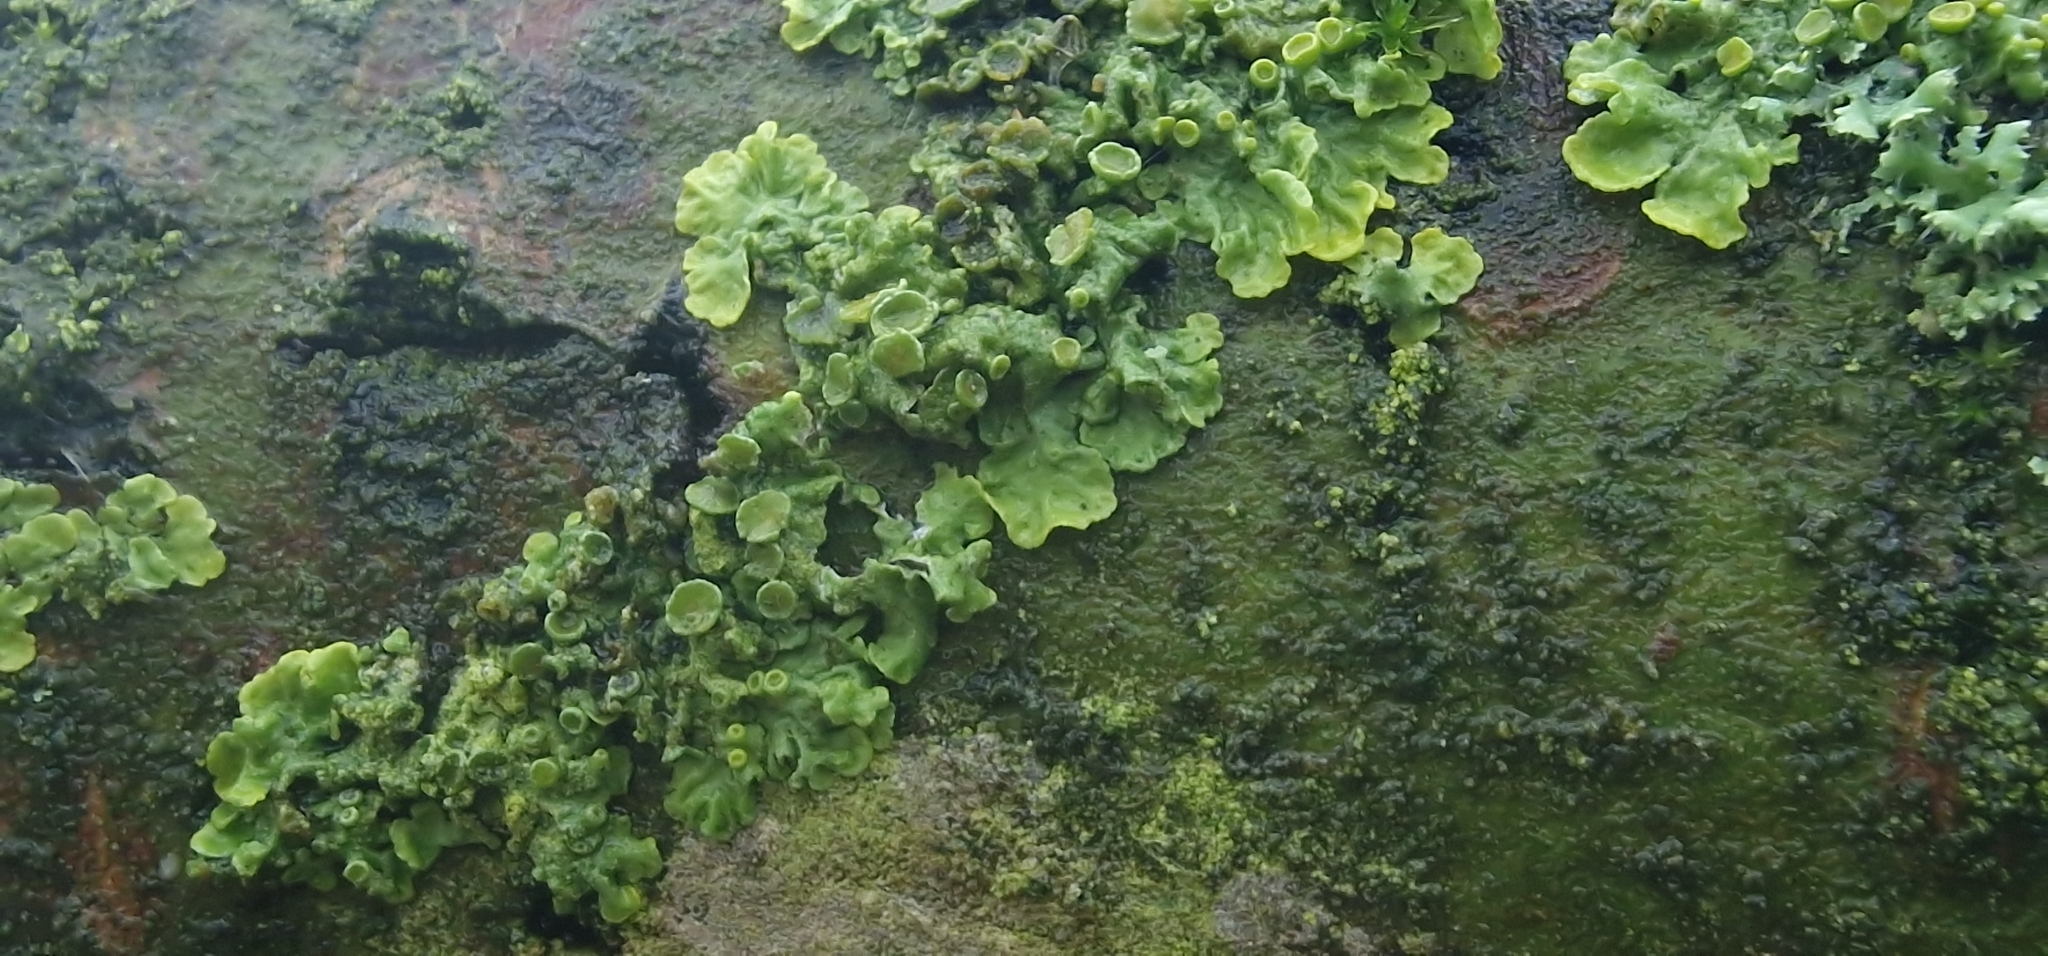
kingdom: Fungi
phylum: Ascomycota
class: Lecanoromycetes
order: Teloschistales
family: Teloschistaceae
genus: Xanthoria
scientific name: Xanthoria parietina
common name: Common orange lichen
